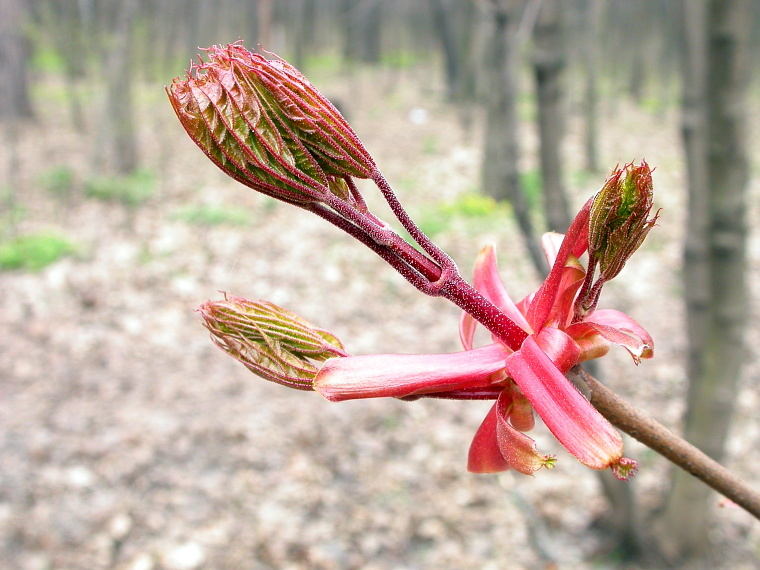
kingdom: Plantae
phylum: Tracheophyta
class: Magnoliopsida
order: Sapindales
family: Sapindaceae
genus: Acer
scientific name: Acer platanoides
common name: Norway maple
